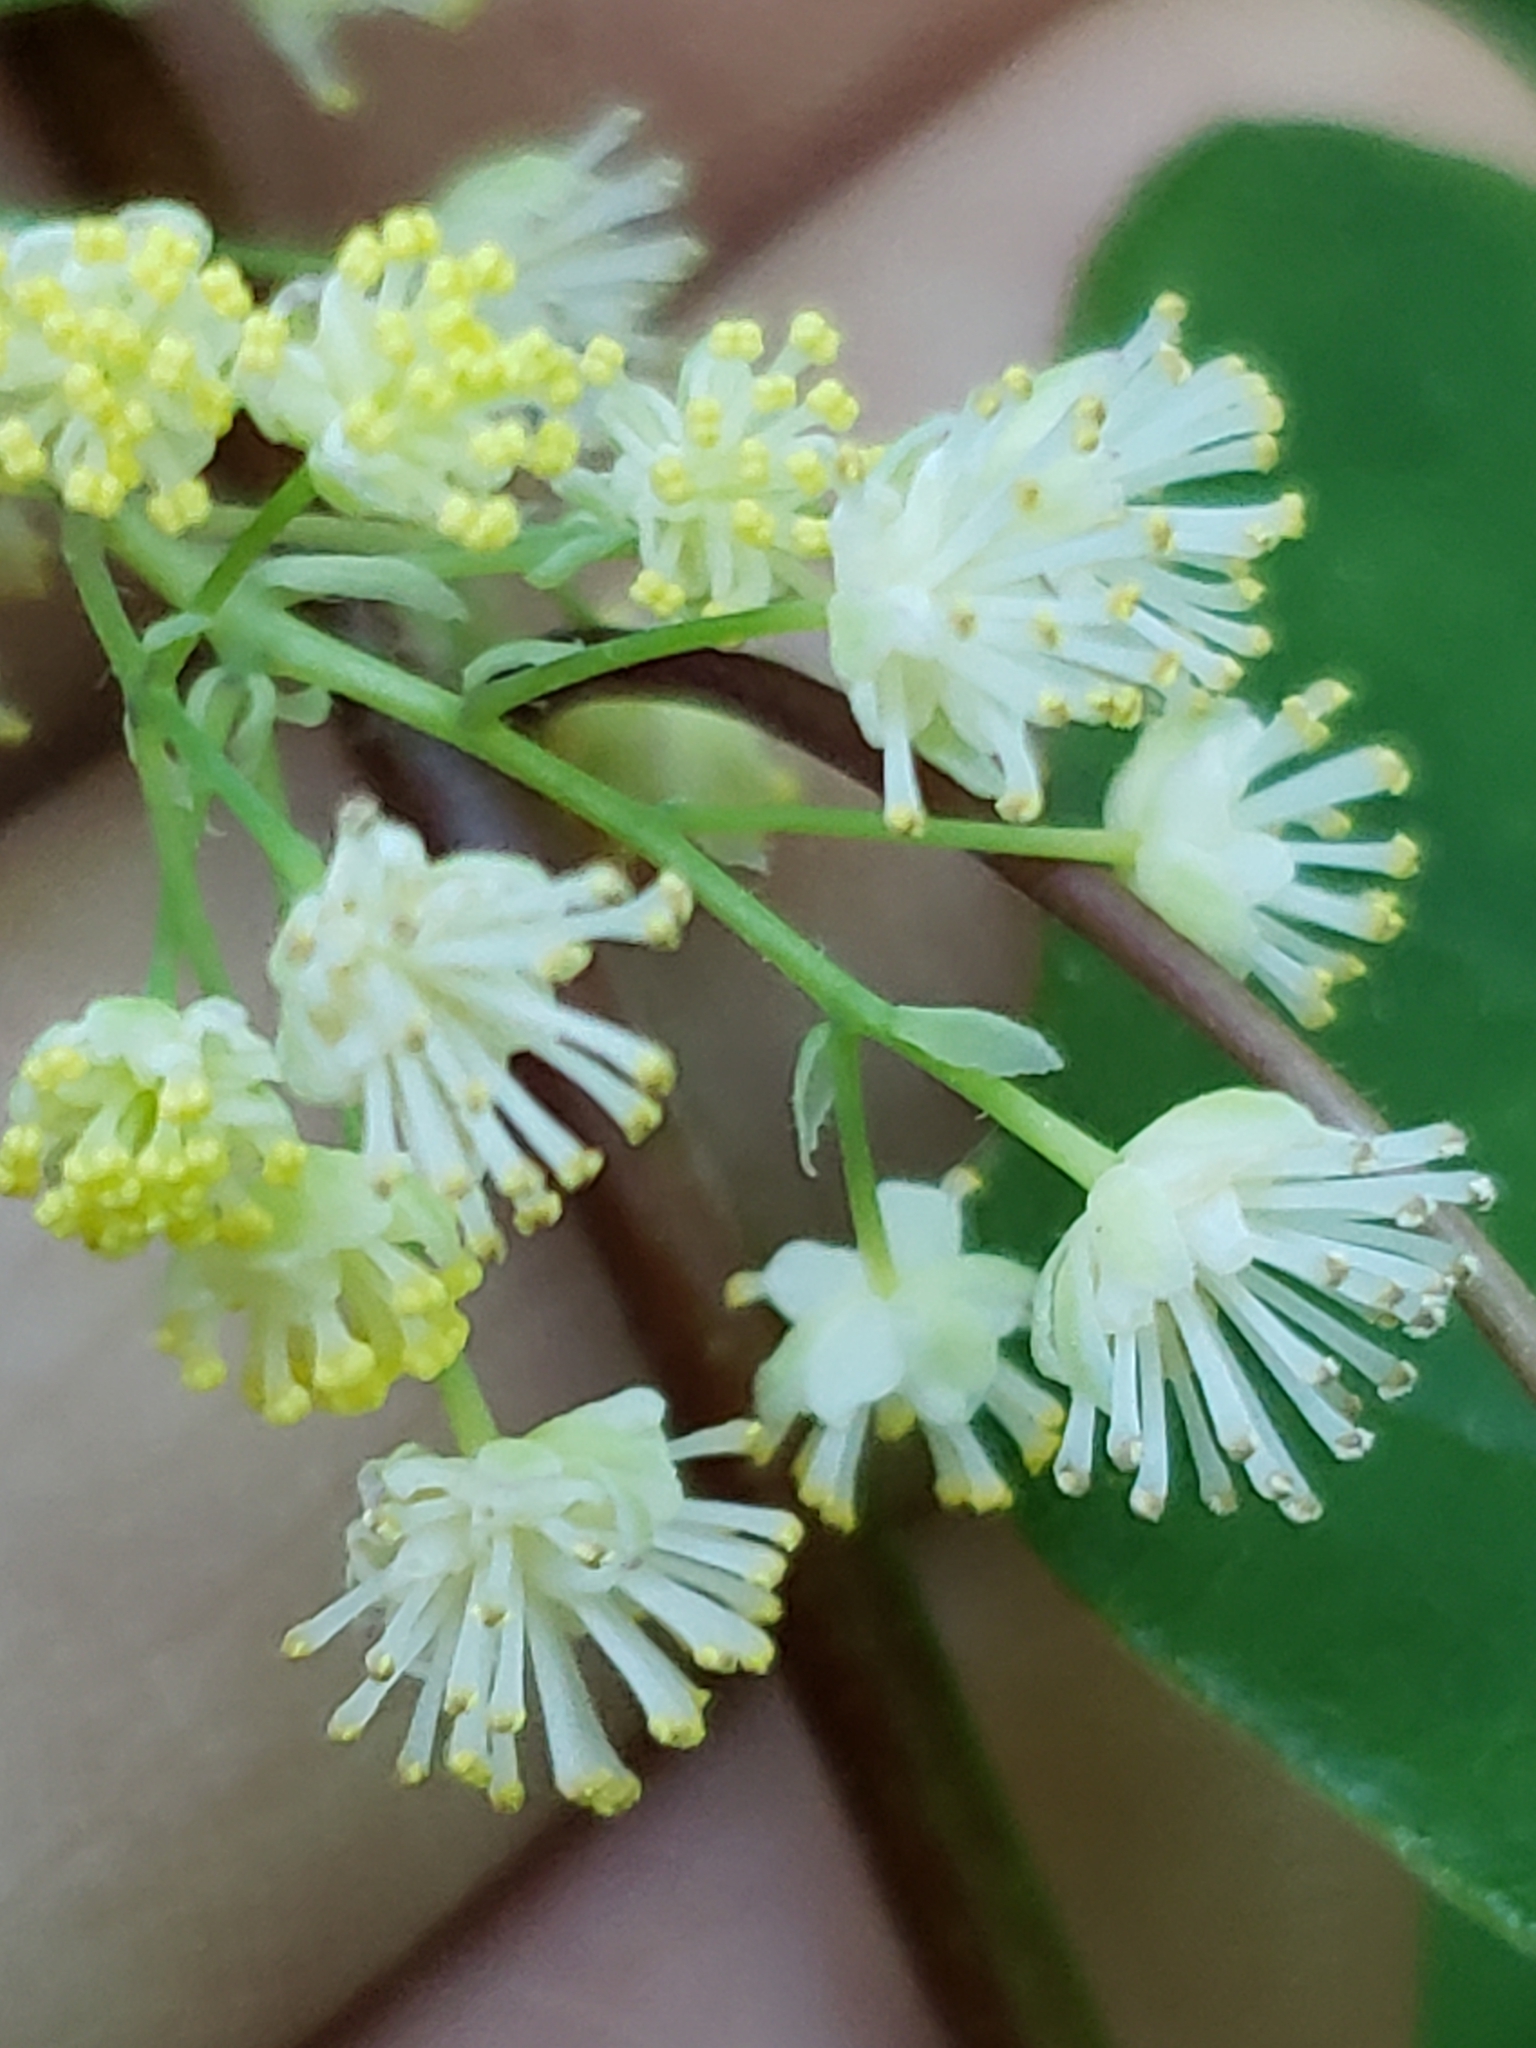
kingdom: Plantae
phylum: Tracheophyta
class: Magnoliopsida
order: Ranunculales
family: Menispermaceae
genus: Menispermum
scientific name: Menispermum canadense
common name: Moonseed
